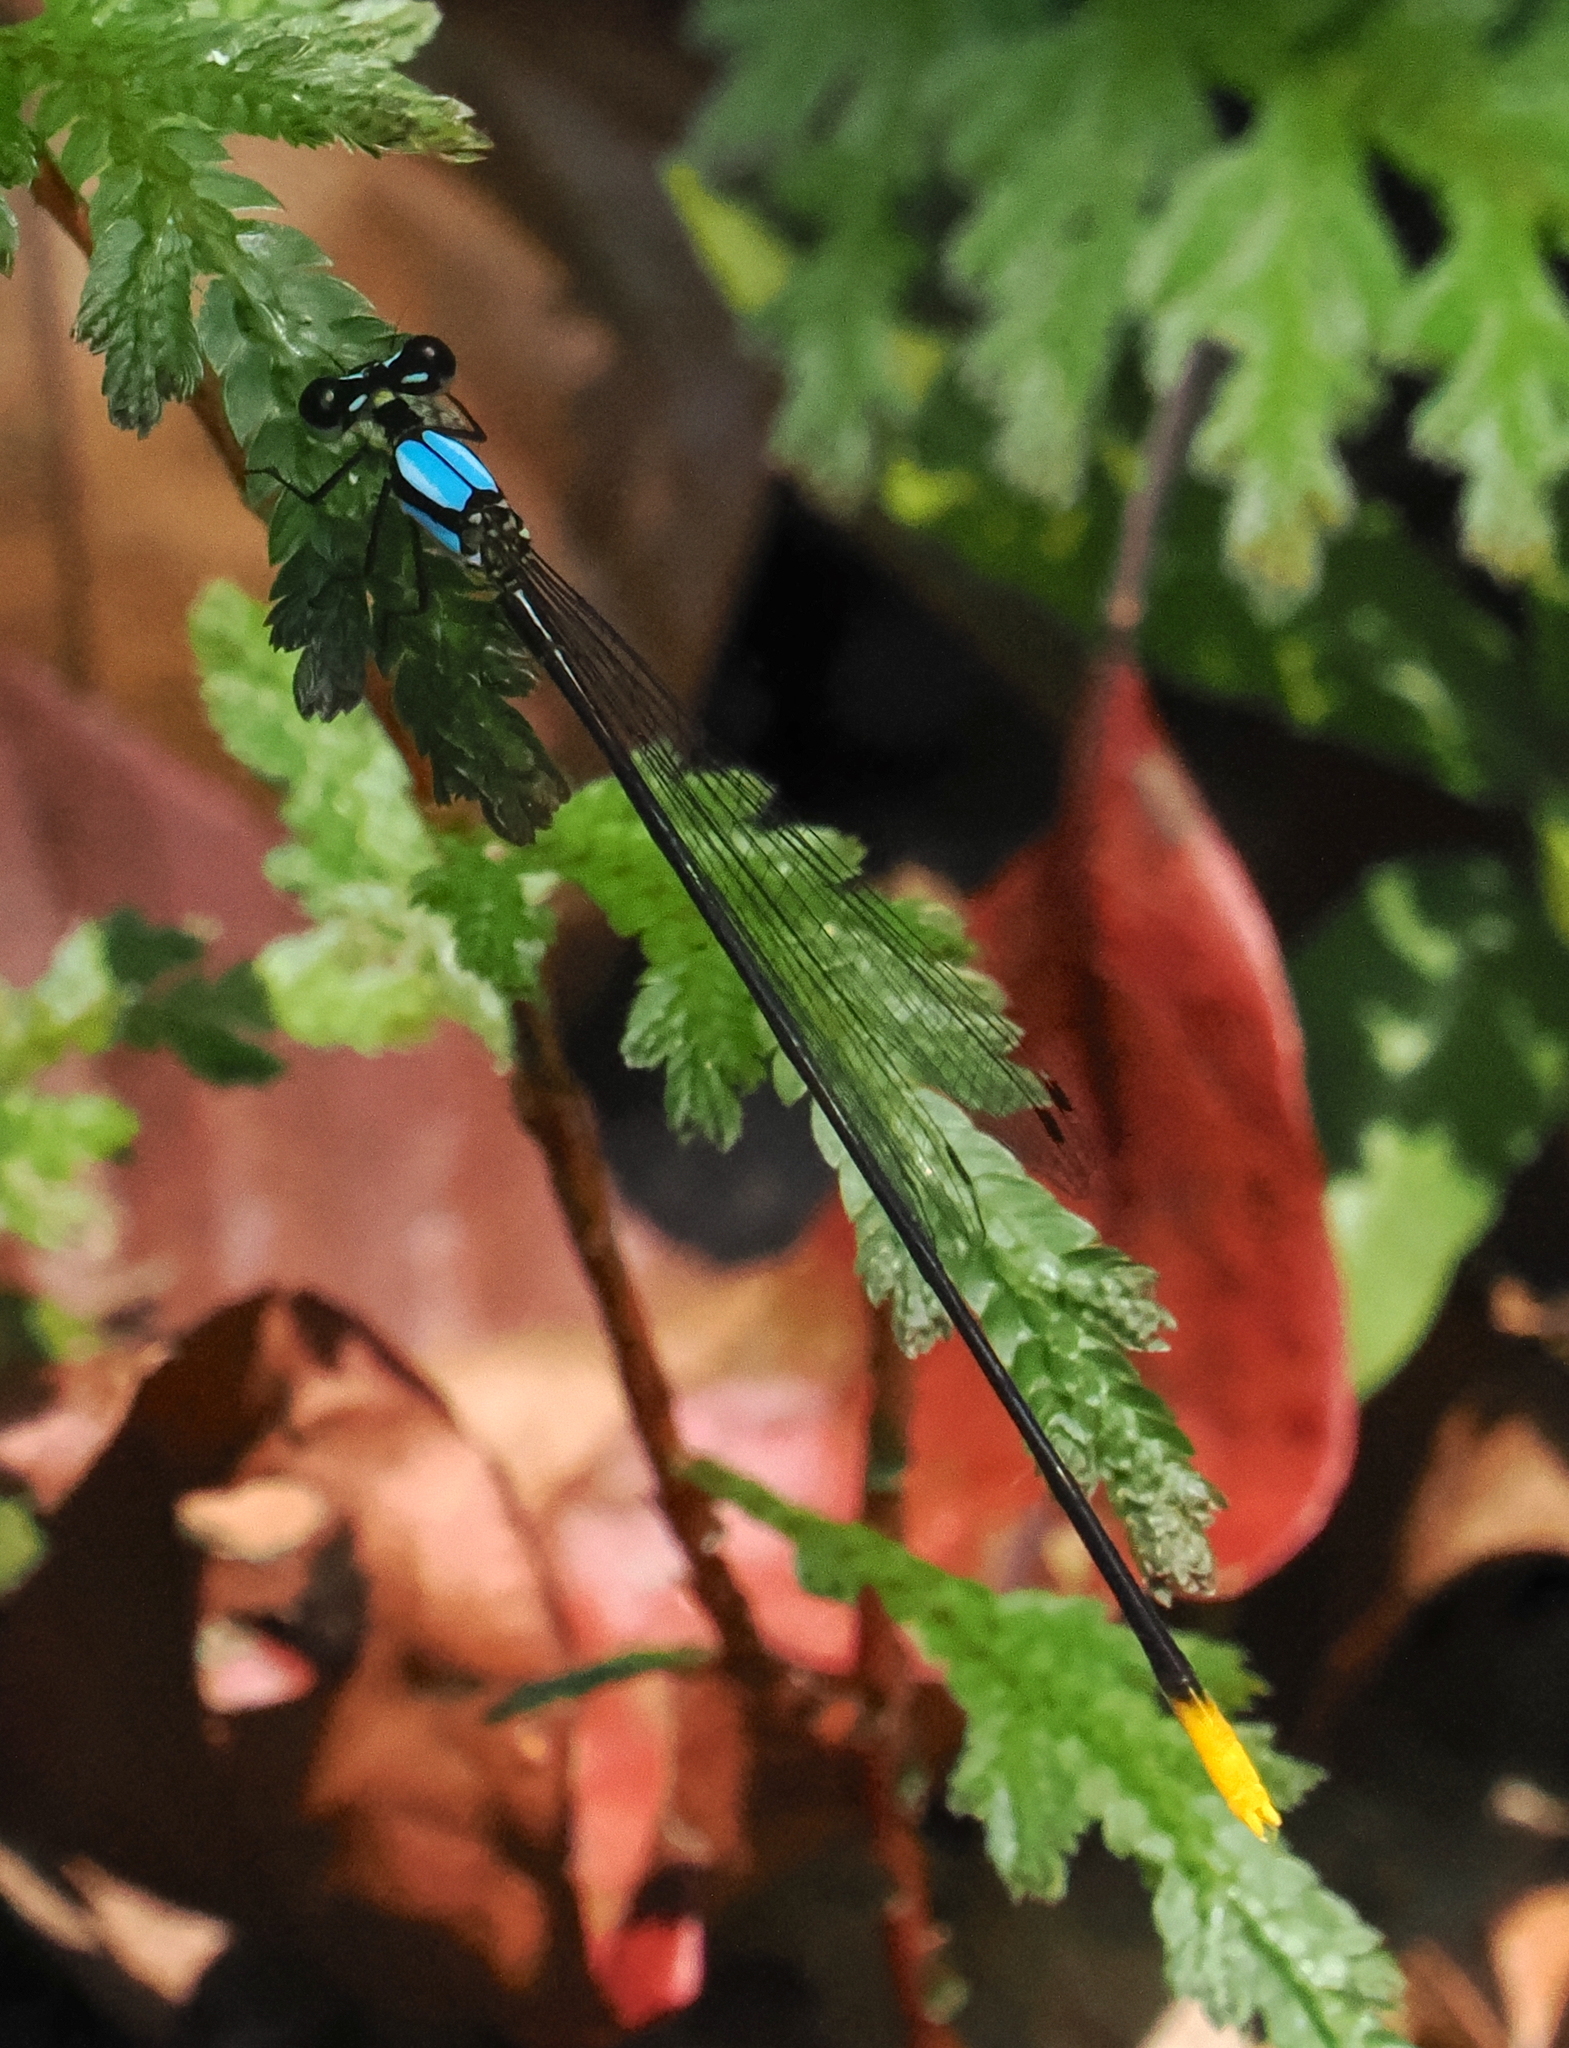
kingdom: Animalia
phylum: Arthropoda
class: Insecta
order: Odonata
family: Platycnemididae
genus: Coeliccia
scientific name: Coeliccia poungyi
